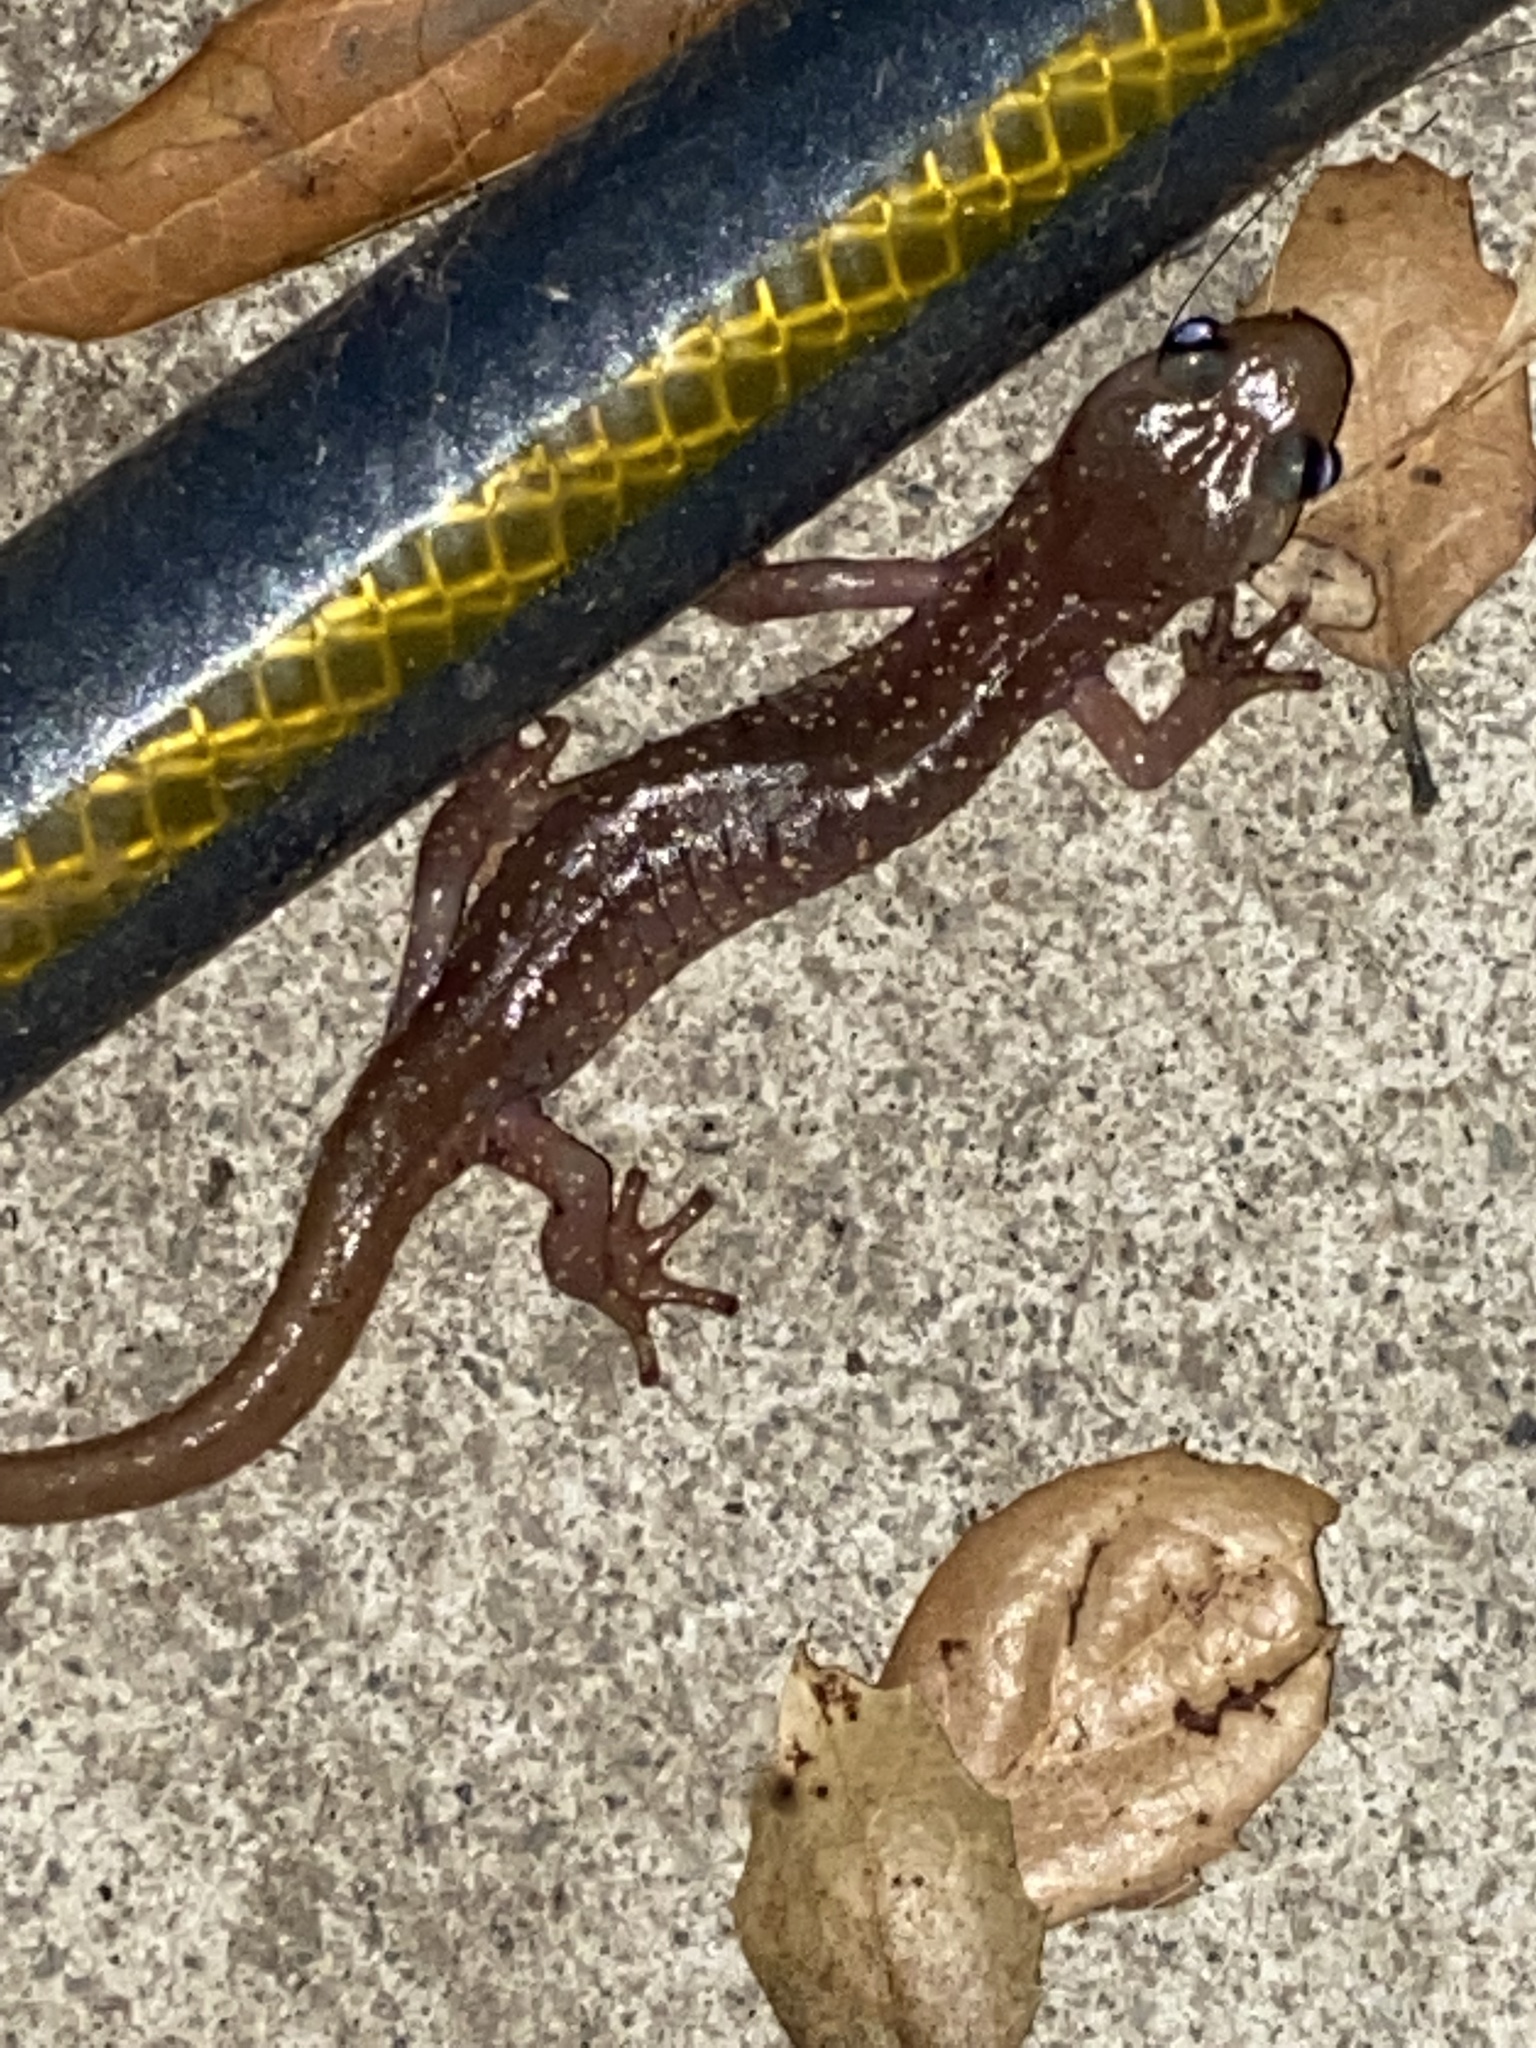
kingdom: Animalia
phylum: Chordata
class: Amphibia
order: Caudata
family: Plethodontidae
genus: Aneides
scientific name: Aneides lugubris
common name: Arboreal salamander
